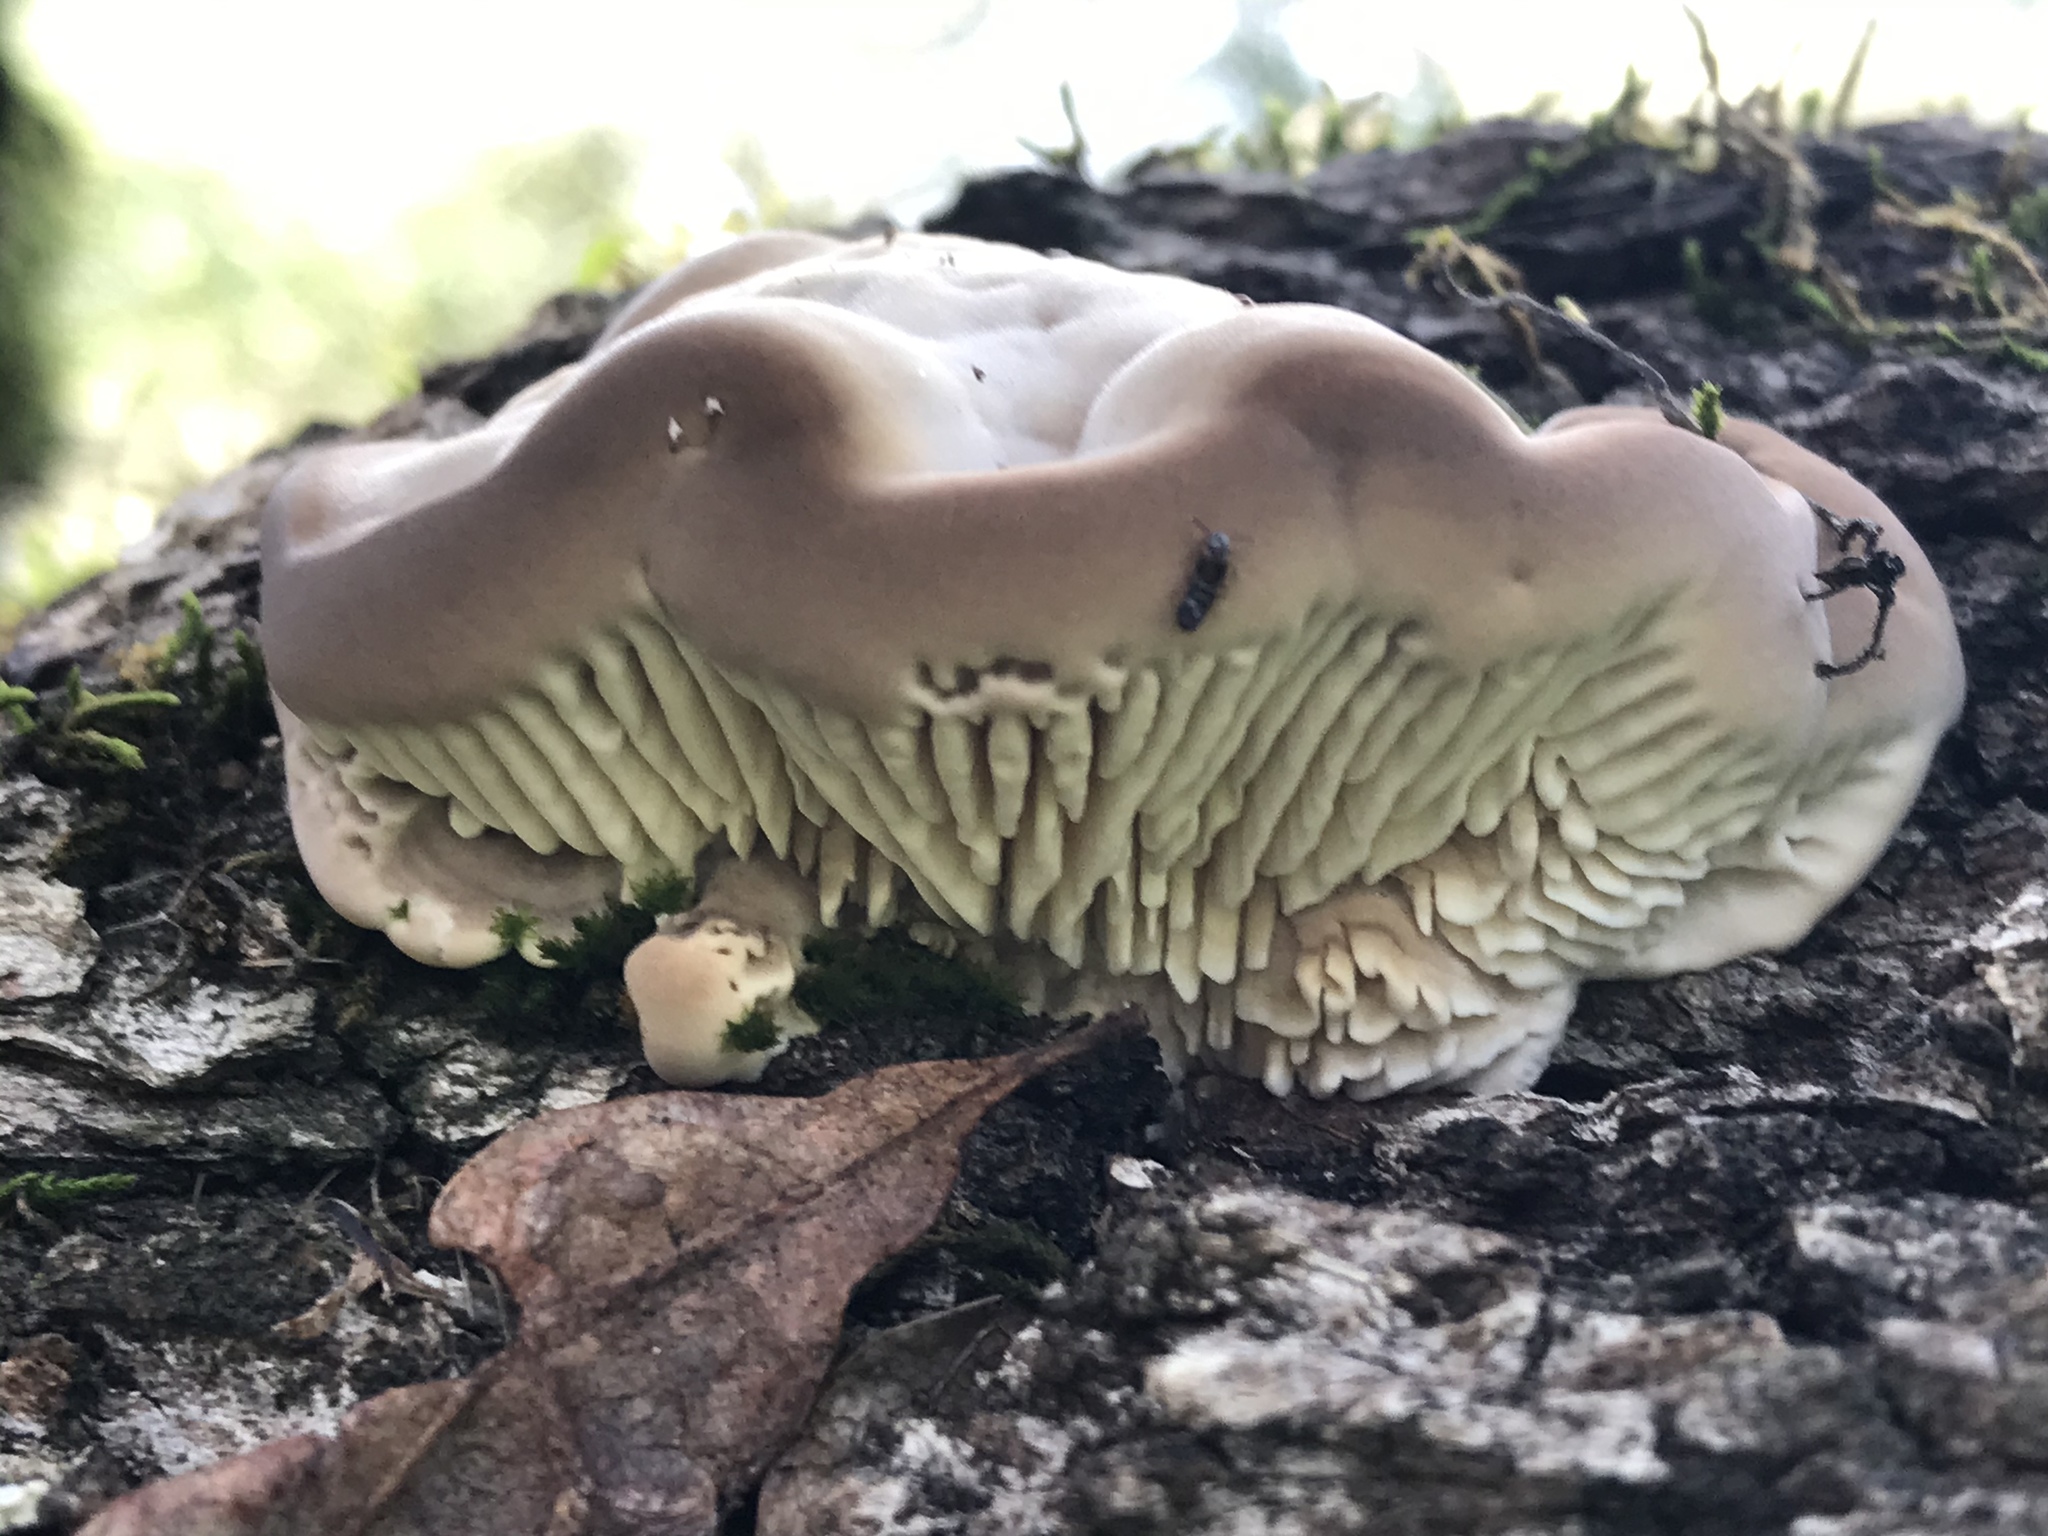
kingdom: Fungi
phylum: Basidiomycota
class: Agaricomycetes
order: Polyporales
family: Fomitopsidaceae
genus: Fomitopsis
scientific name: Fomitopsis
